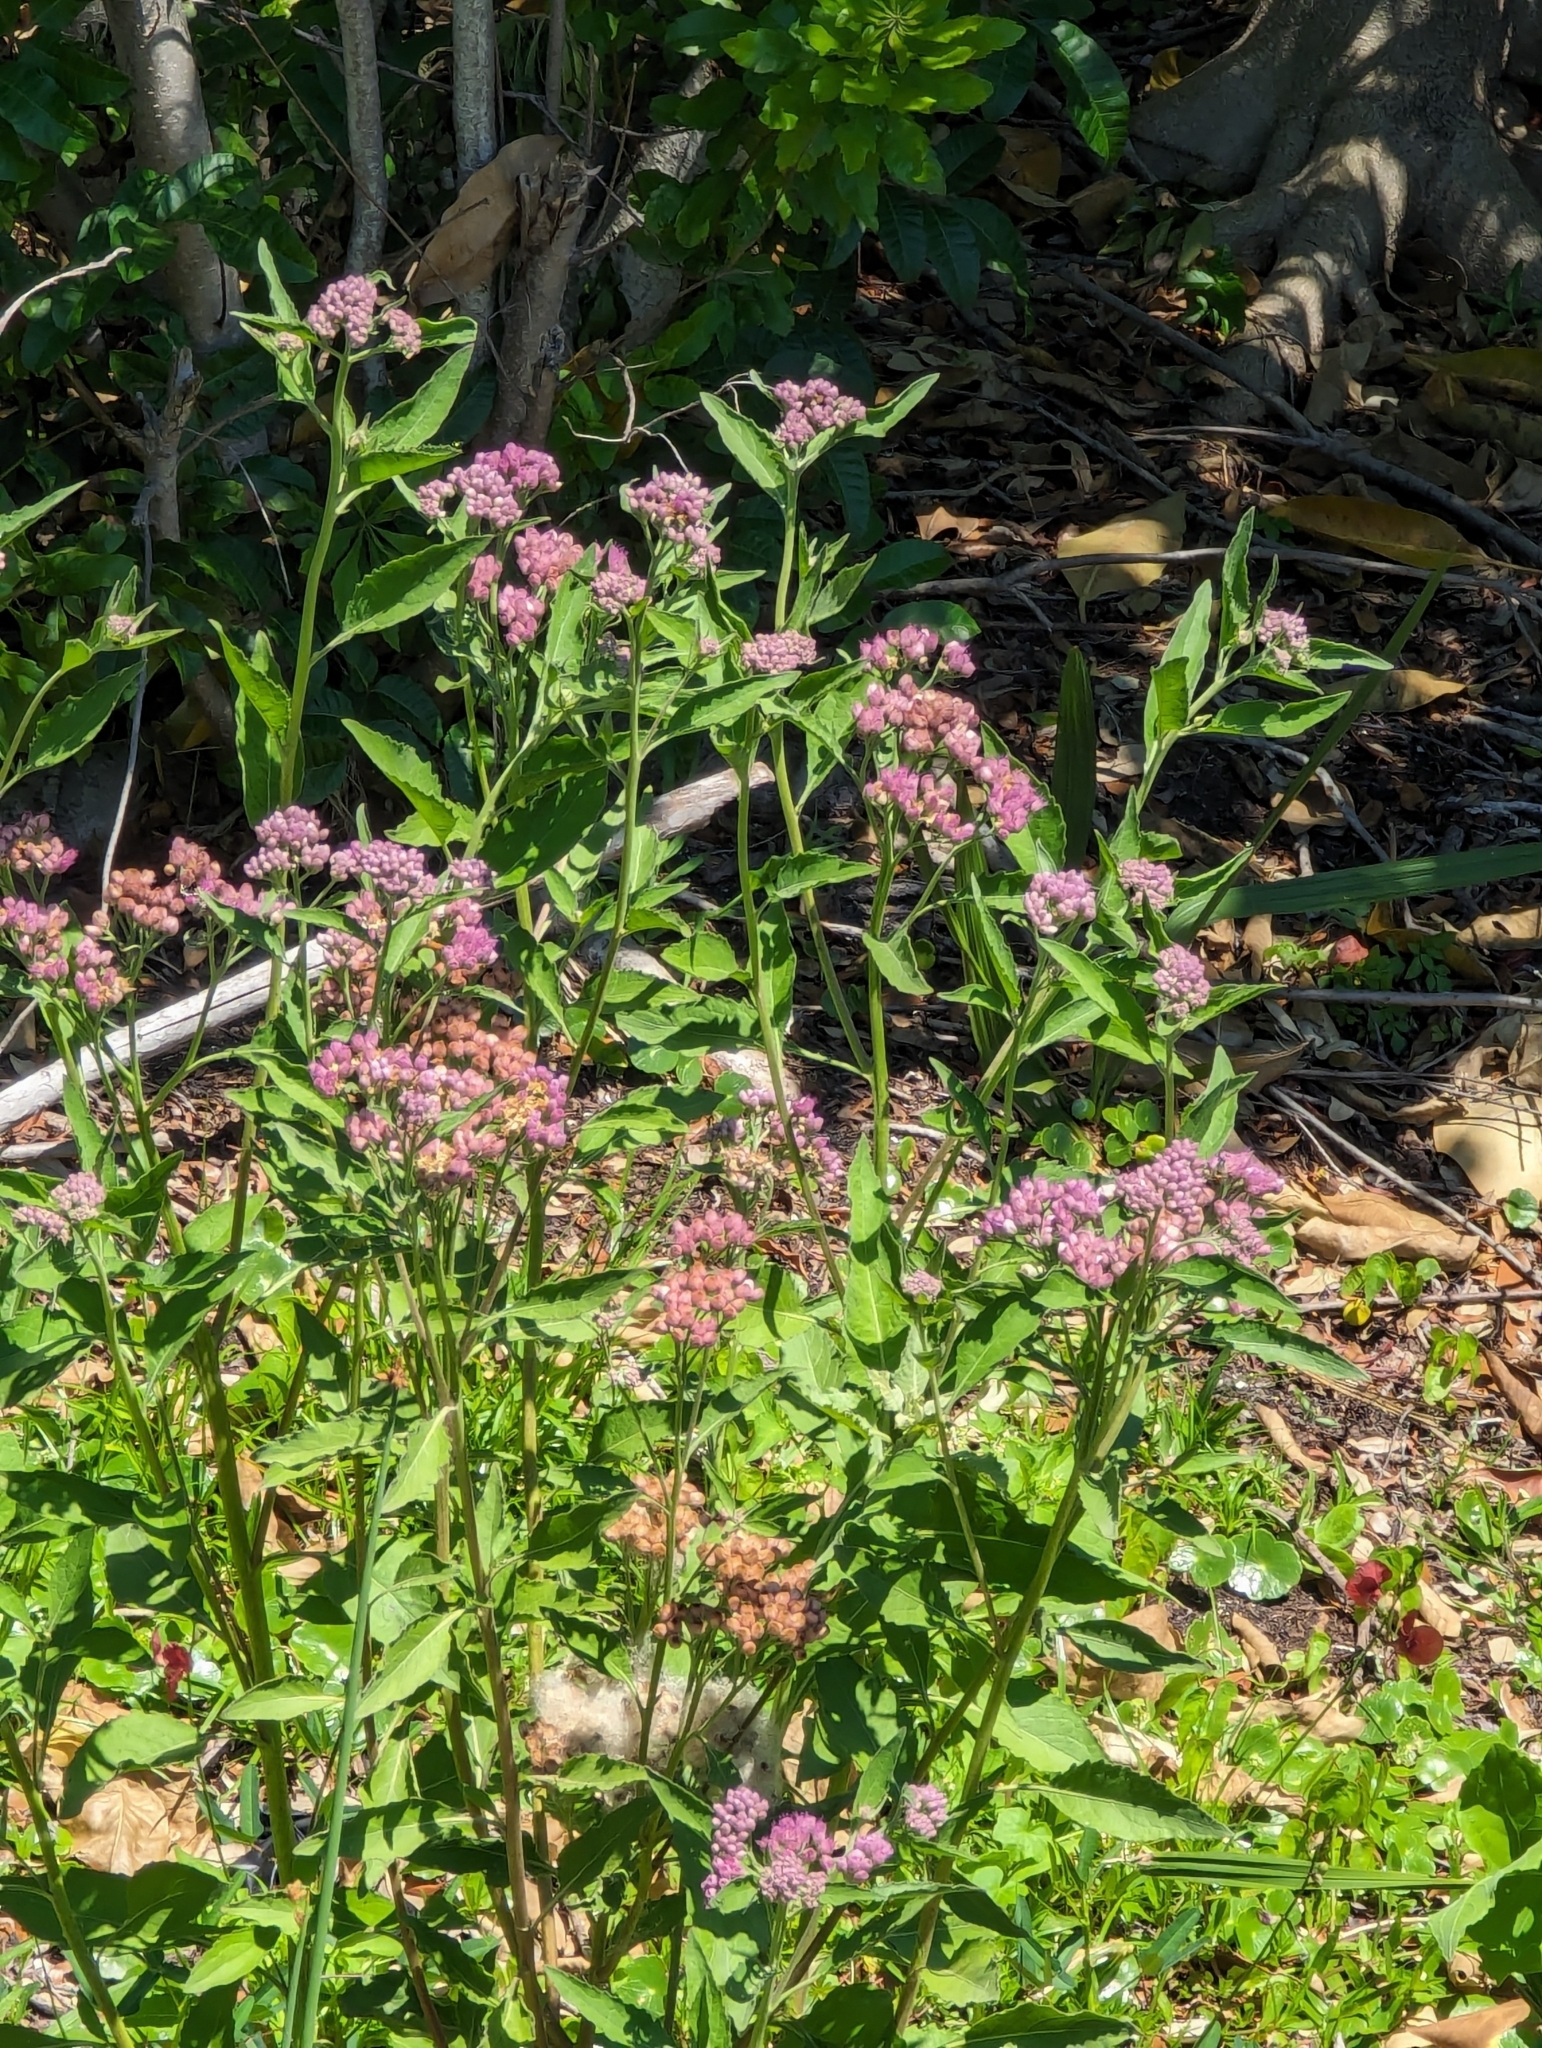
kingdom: Plantae
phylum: Tracheophyta
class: Magnoliopsida
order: Asterales
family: Asteraceae
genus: Pluchea
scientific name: Pluchea odorata
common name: Saltmarsh fleabane
